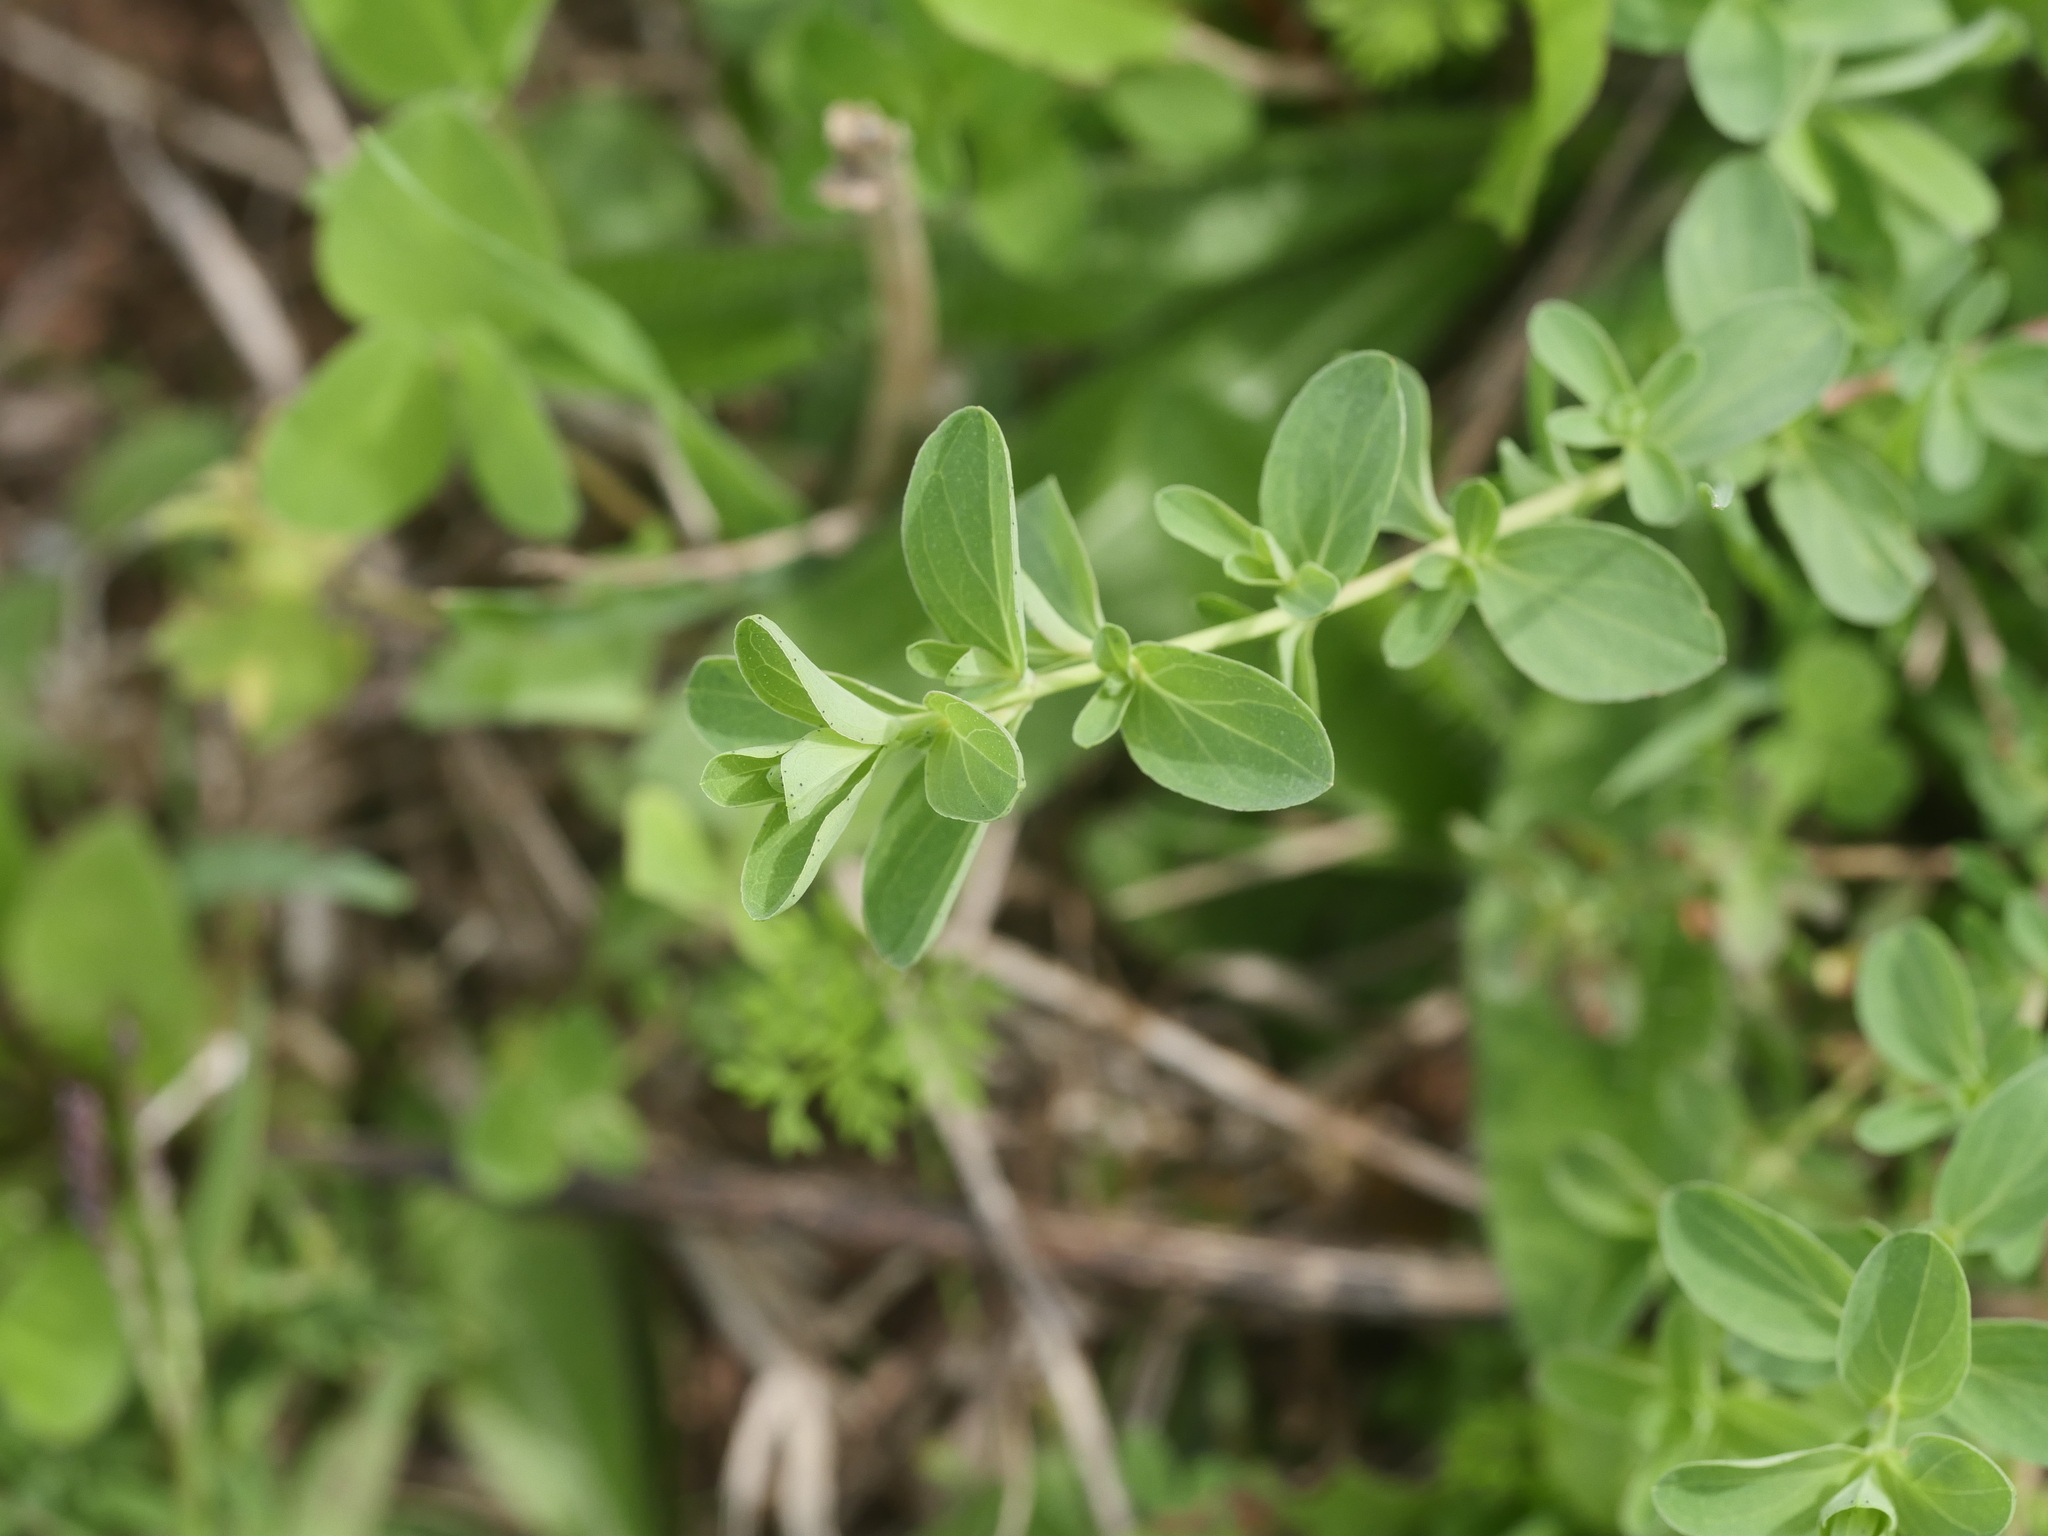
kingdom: Plantae
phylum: Tracheophyta
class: Magnoliopsida
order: Malpighiales
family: Hypericaceae
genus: Hypericum
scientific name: Hypericum perforatum
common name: Common st. johnswort
